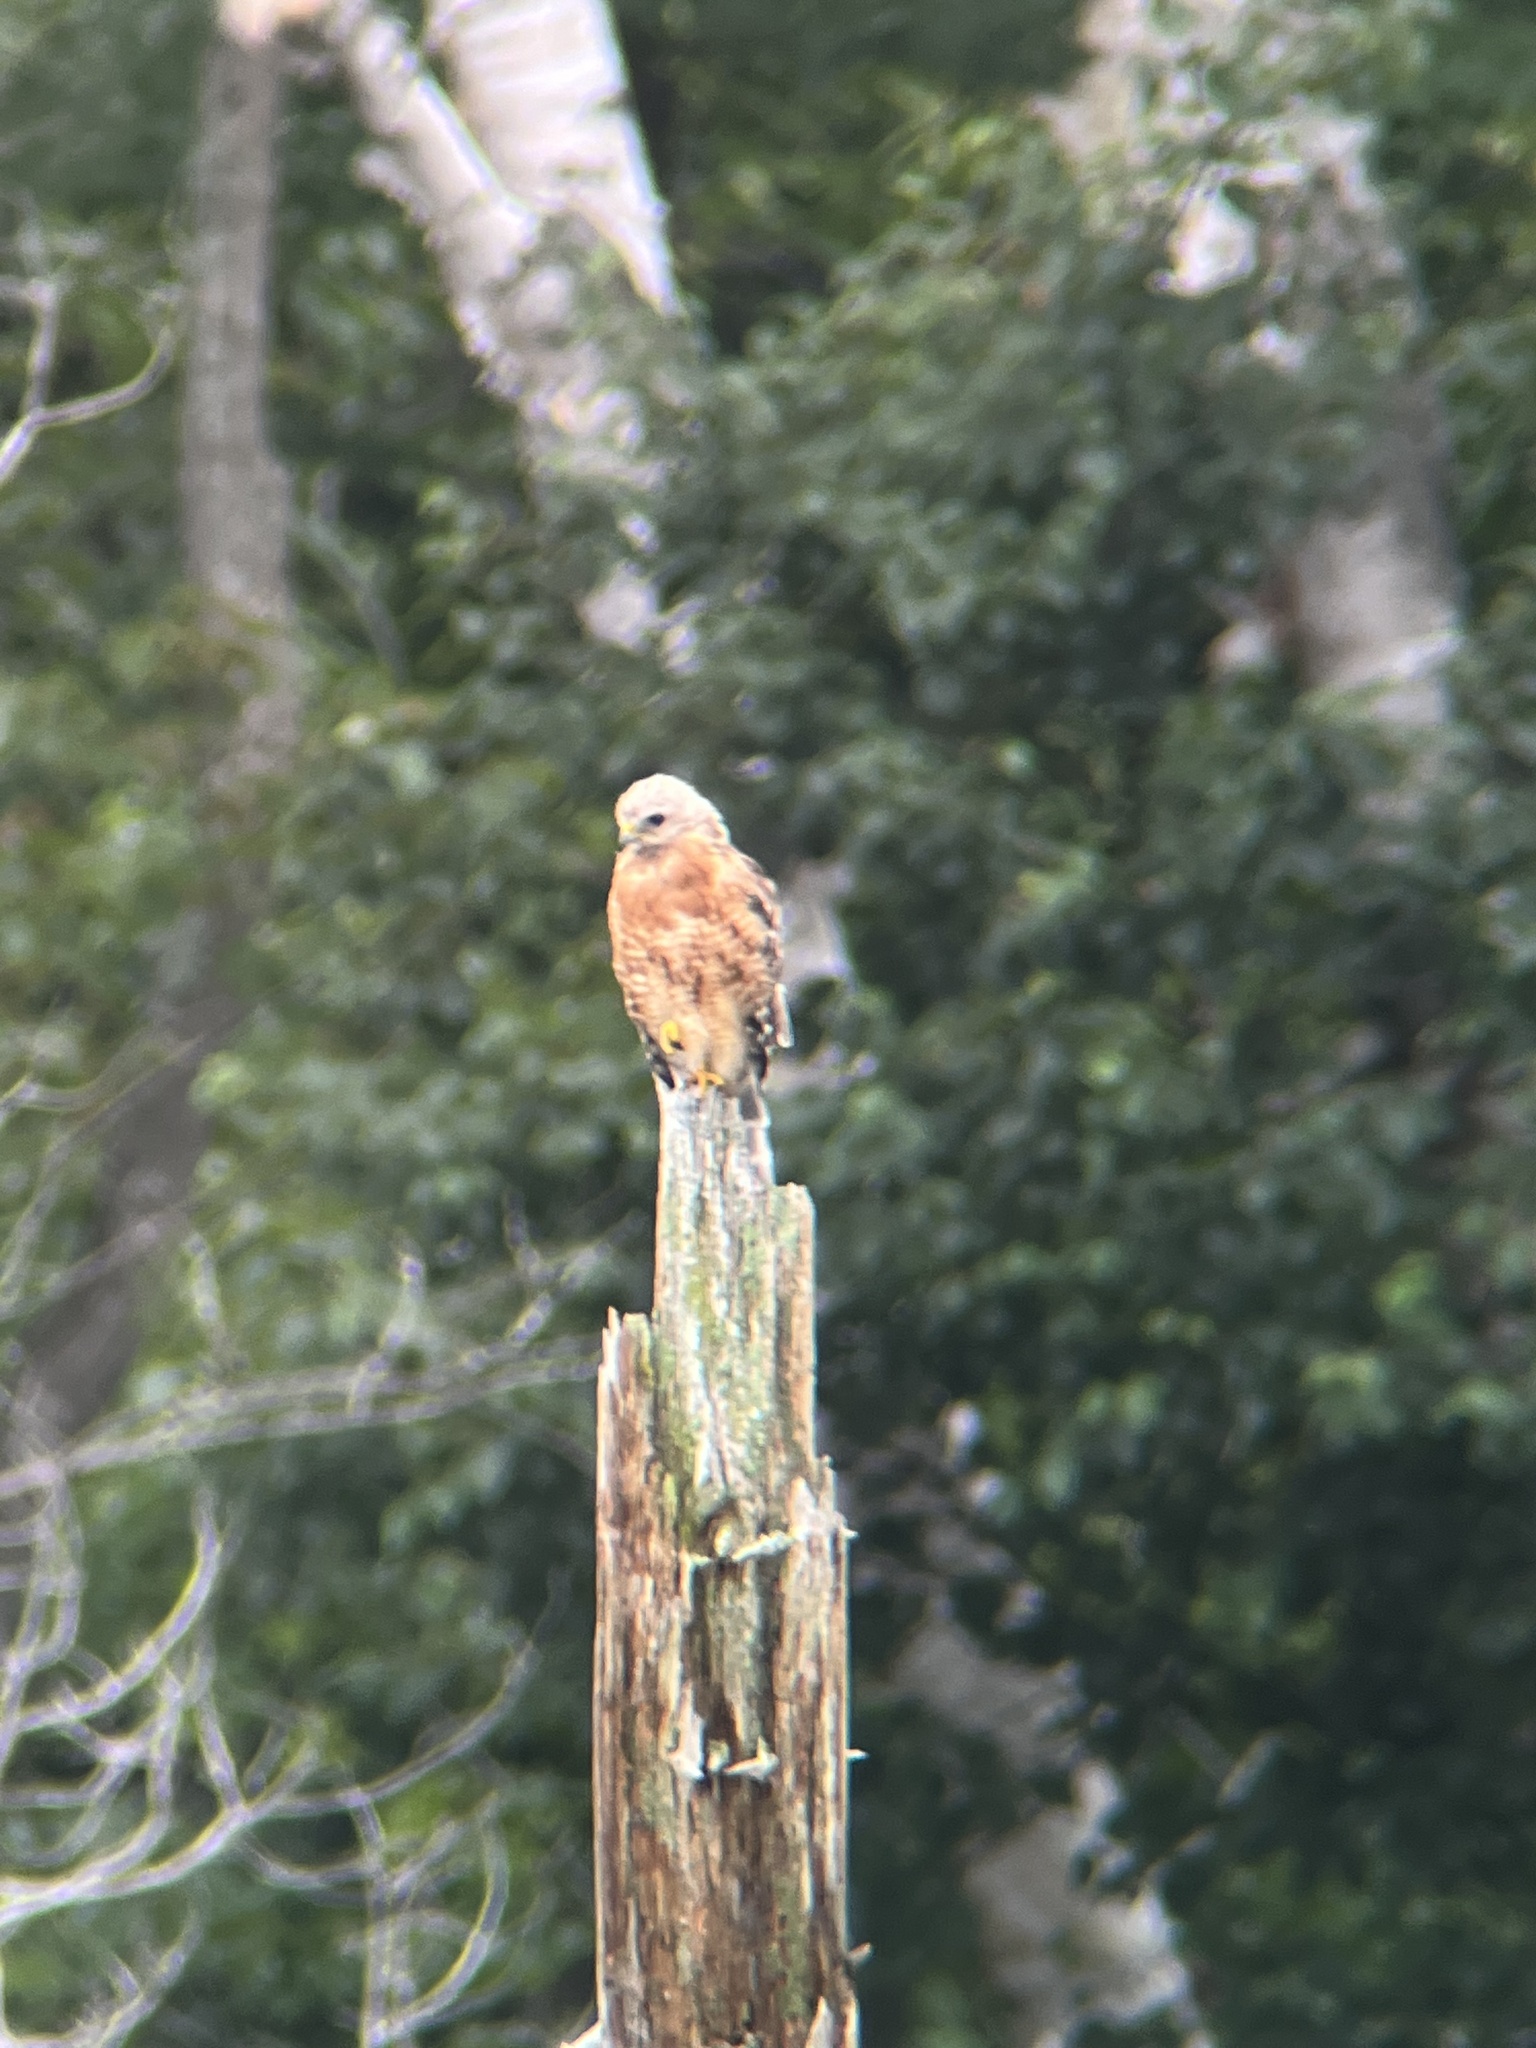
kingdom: Animalia
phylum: Chordata
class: Aves
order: Accipitriformes
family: Accipitridae
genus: Buteo
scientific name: Buteo lineatus
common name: Red-shouldered hawk
